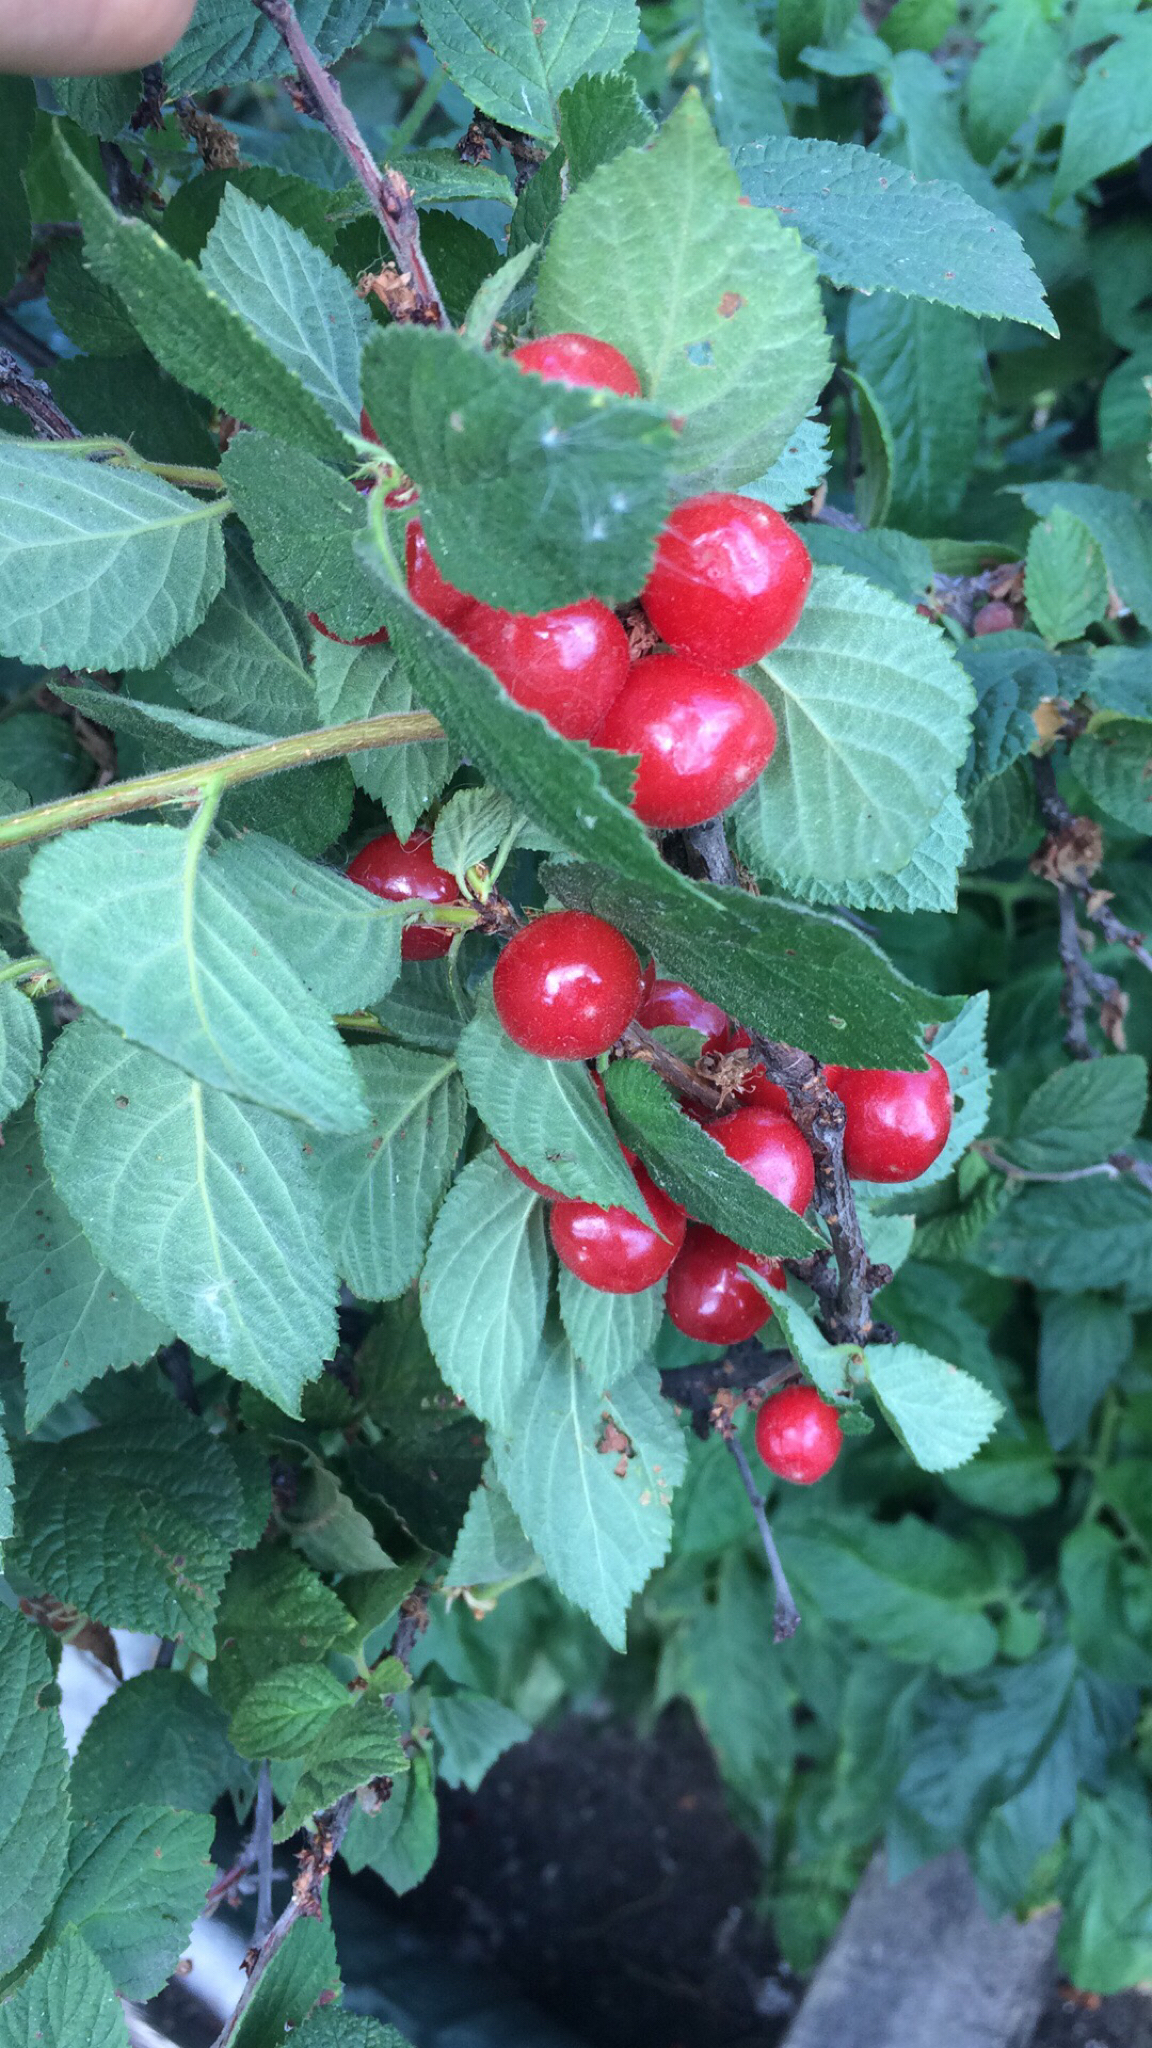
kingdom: Plantae
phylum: Tracheophyta
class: Magnoliopsida
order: Rosales
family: Rosaceae
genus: Prunus
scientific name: Prunus tomentosa
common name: Nanking cherry
